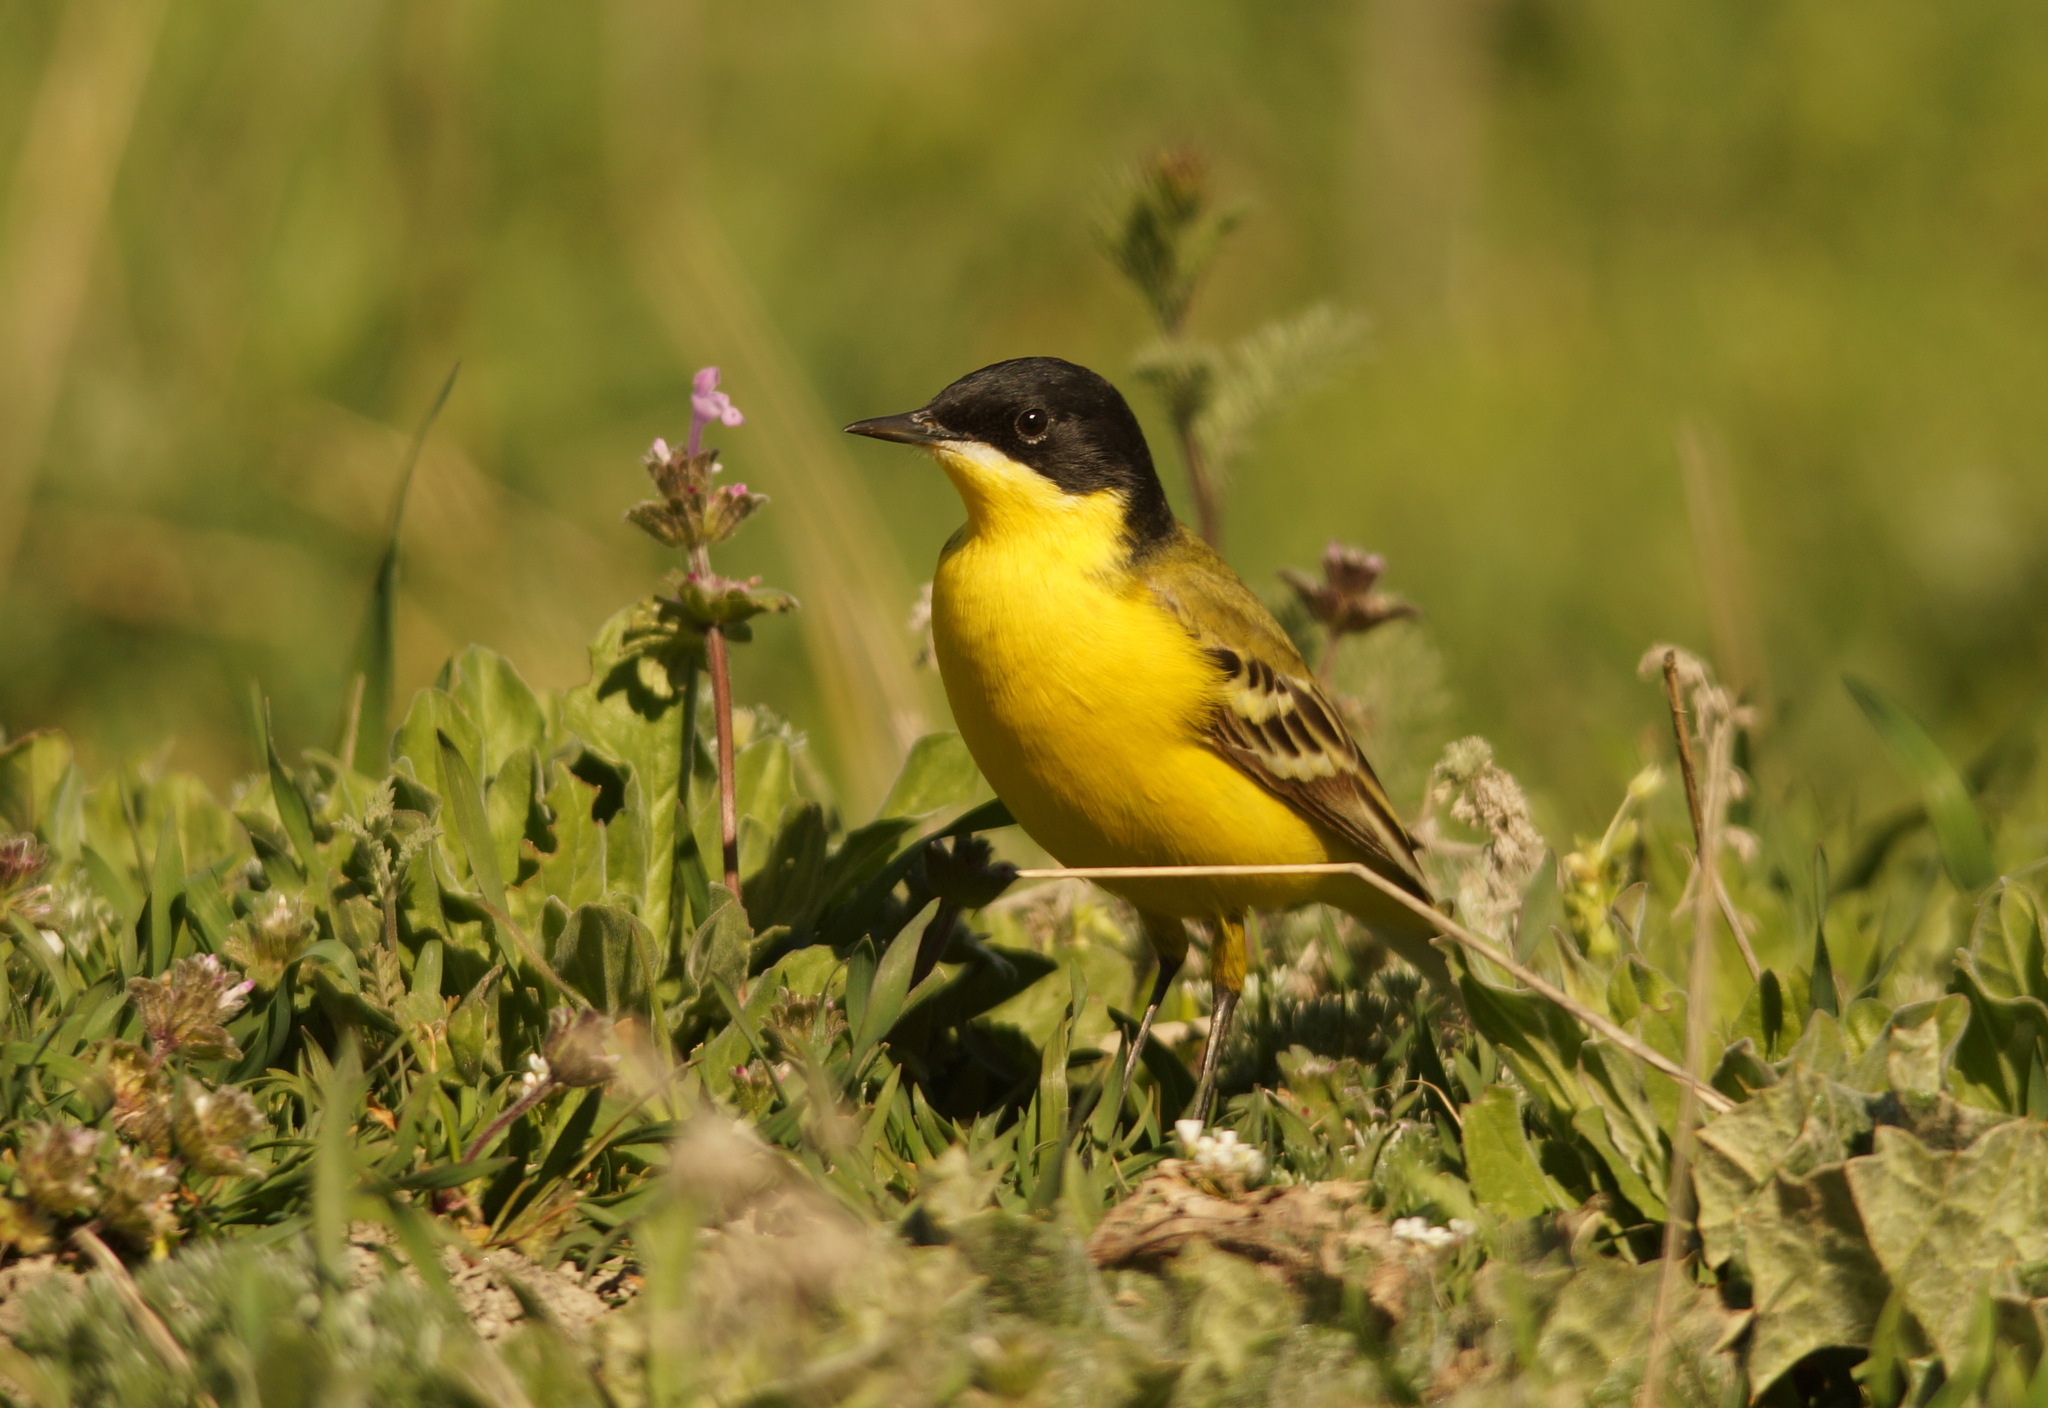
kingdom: Animalia
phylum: Chordata
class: Aves
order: Passeriformes
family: Motacillidae
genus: Motacilla
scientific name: Motacilla flava
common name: Western yellow wagtail
